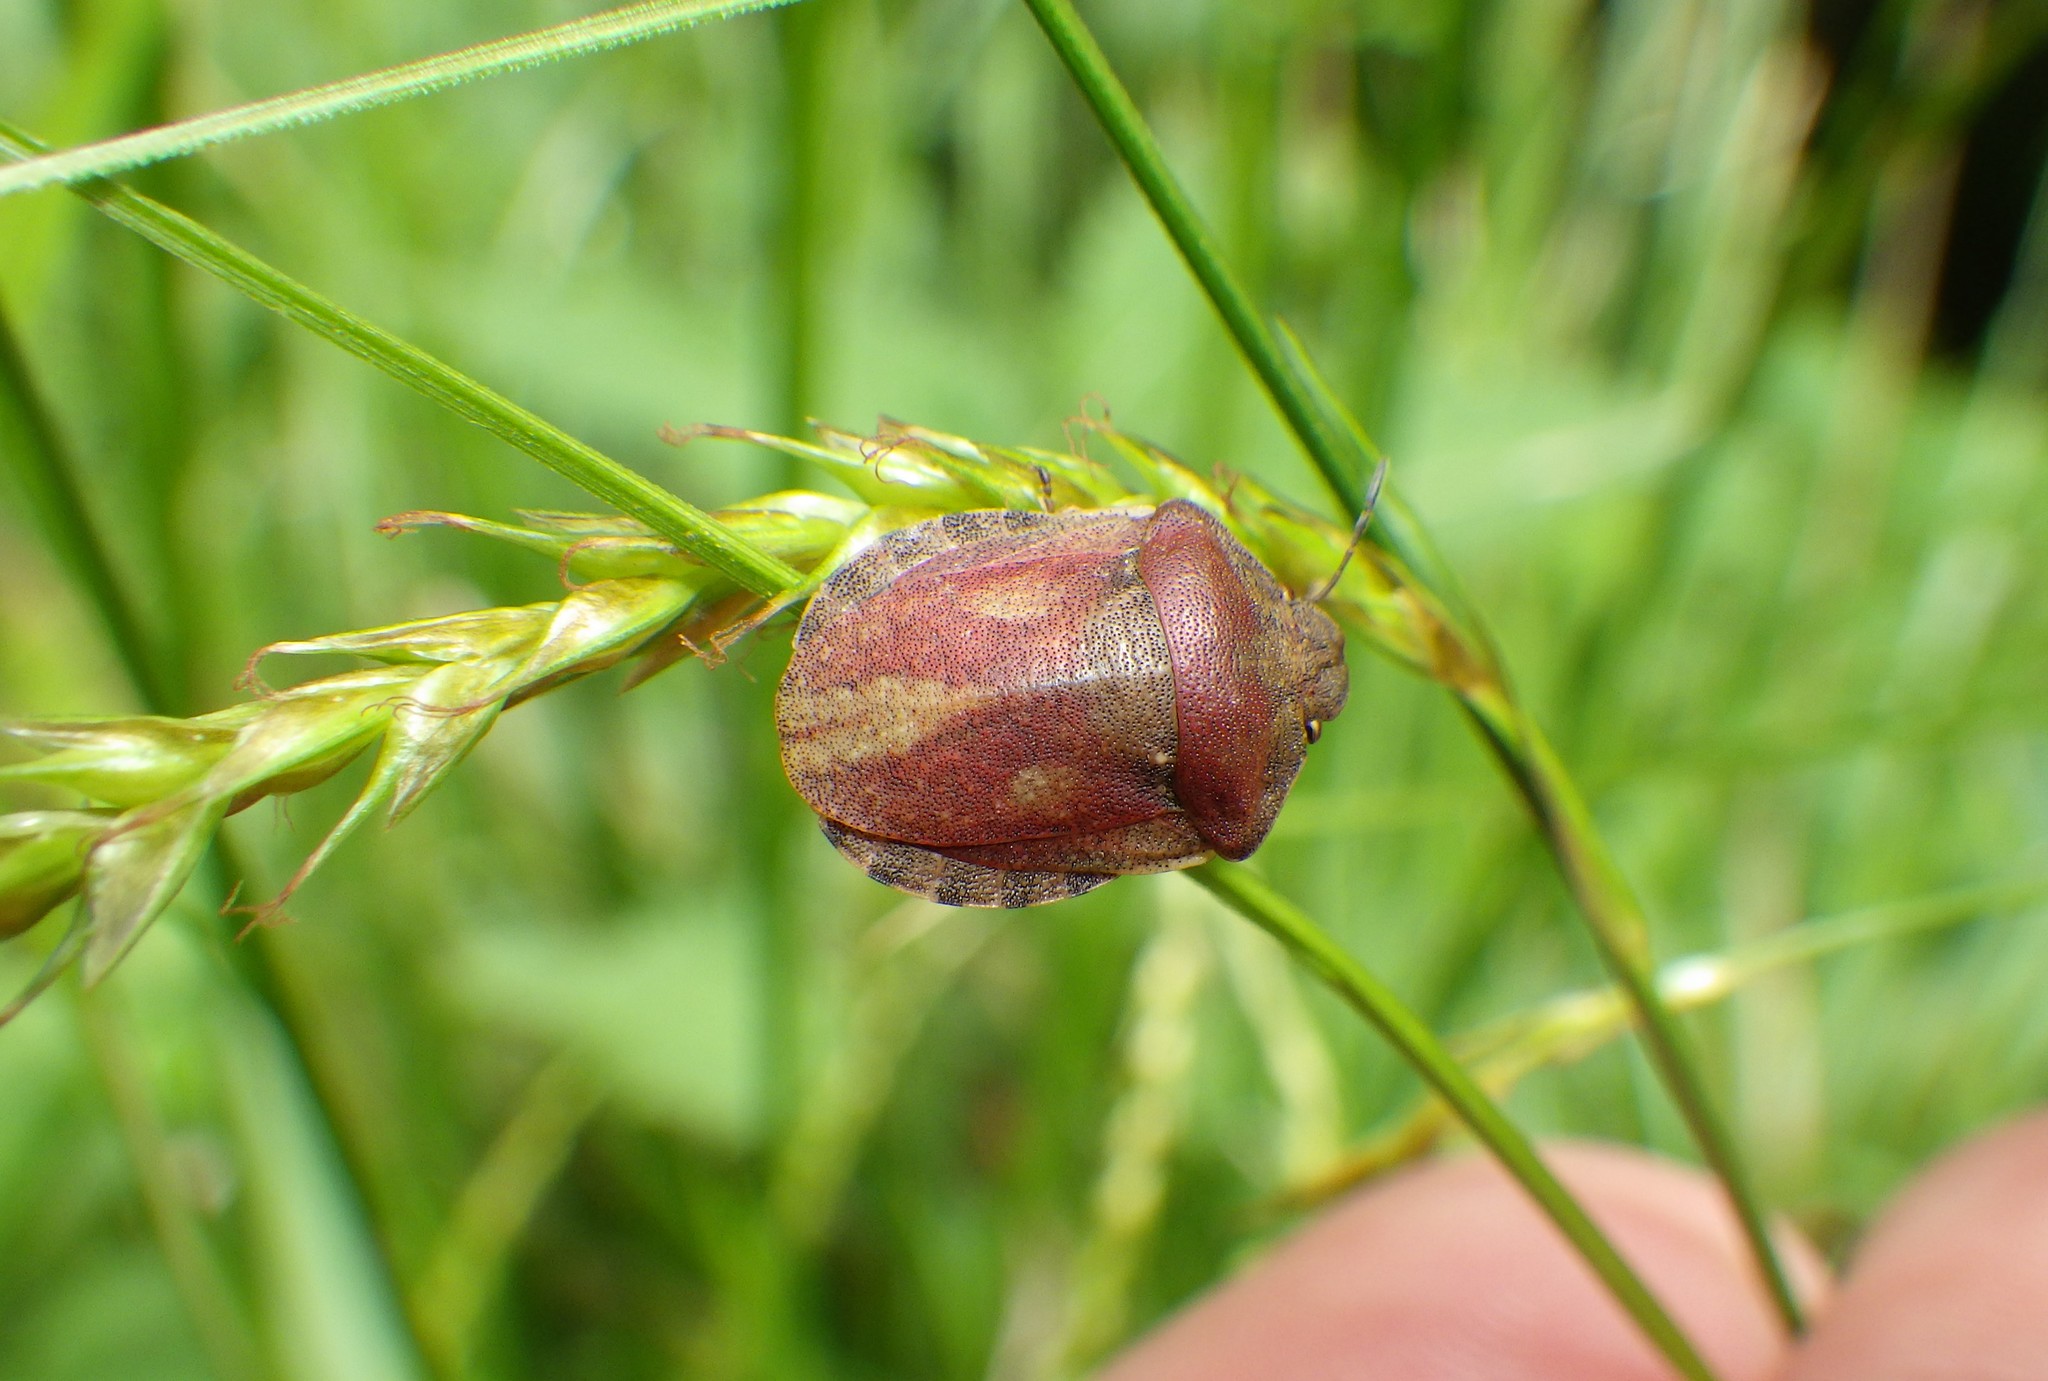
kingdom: Animalia
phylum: Arthropoda
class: Insecta
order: Hemiptera
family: Scutelleridae
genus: Eurygaster
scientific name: Eurygaster testudinaria
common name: Tortoise bug
